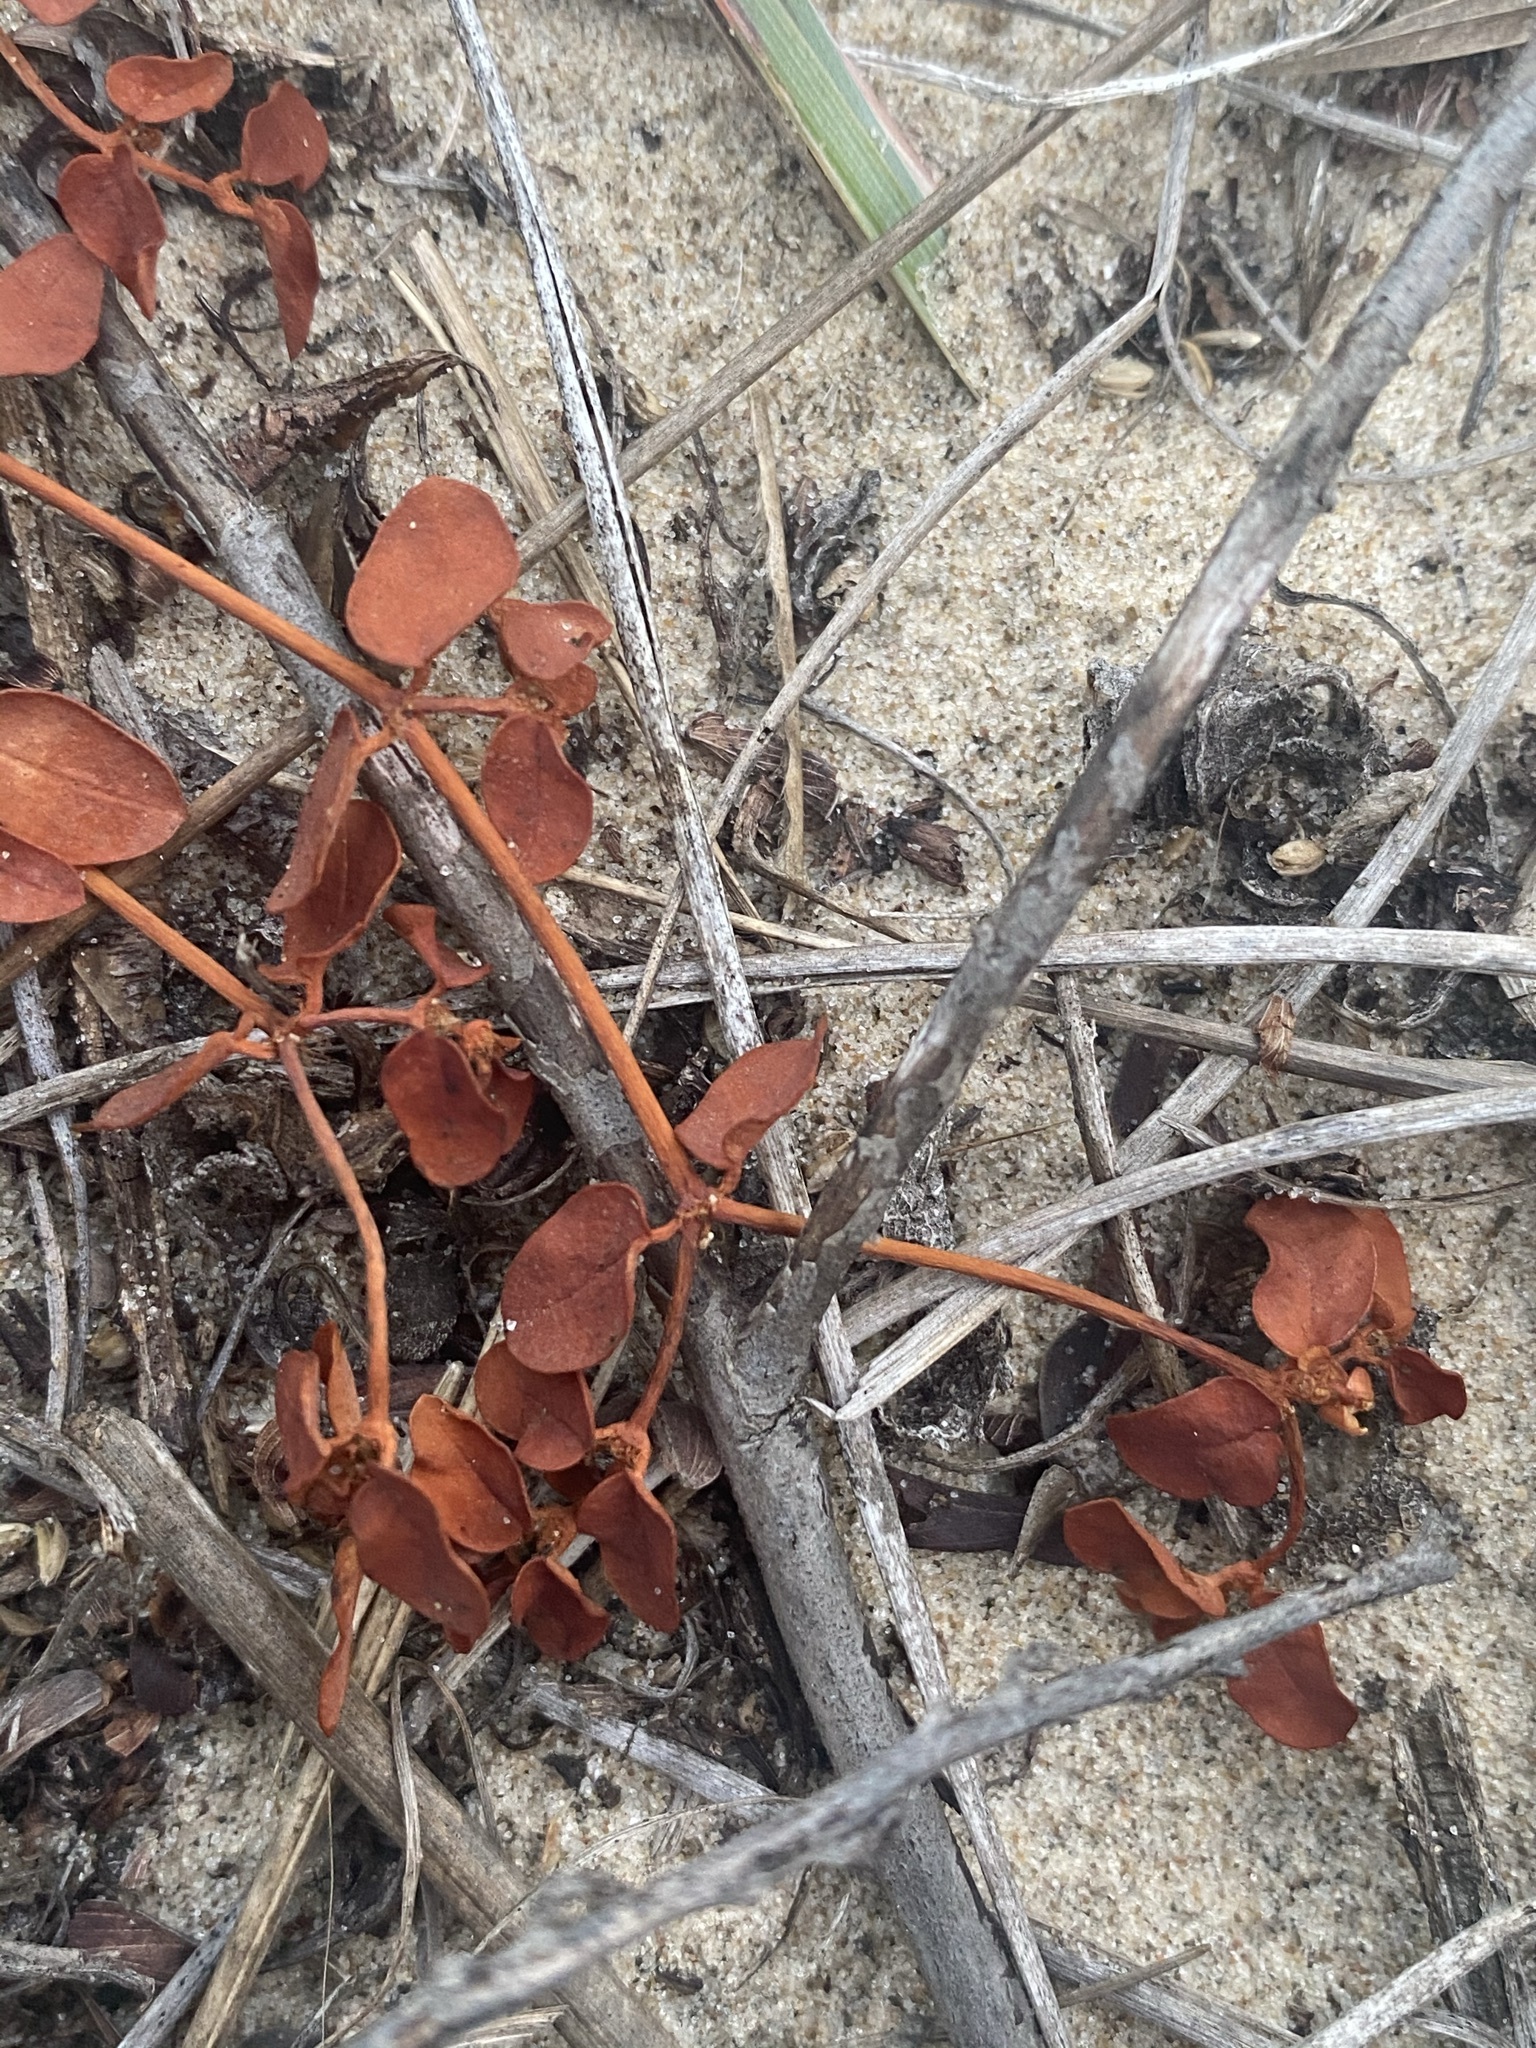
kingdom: Plantae
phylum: Tracheophyta
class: Magnoliopsida
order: Malpighiales
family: Euphorbiaceae
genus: Euphorbia
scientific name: Euphorbia cordifolia
